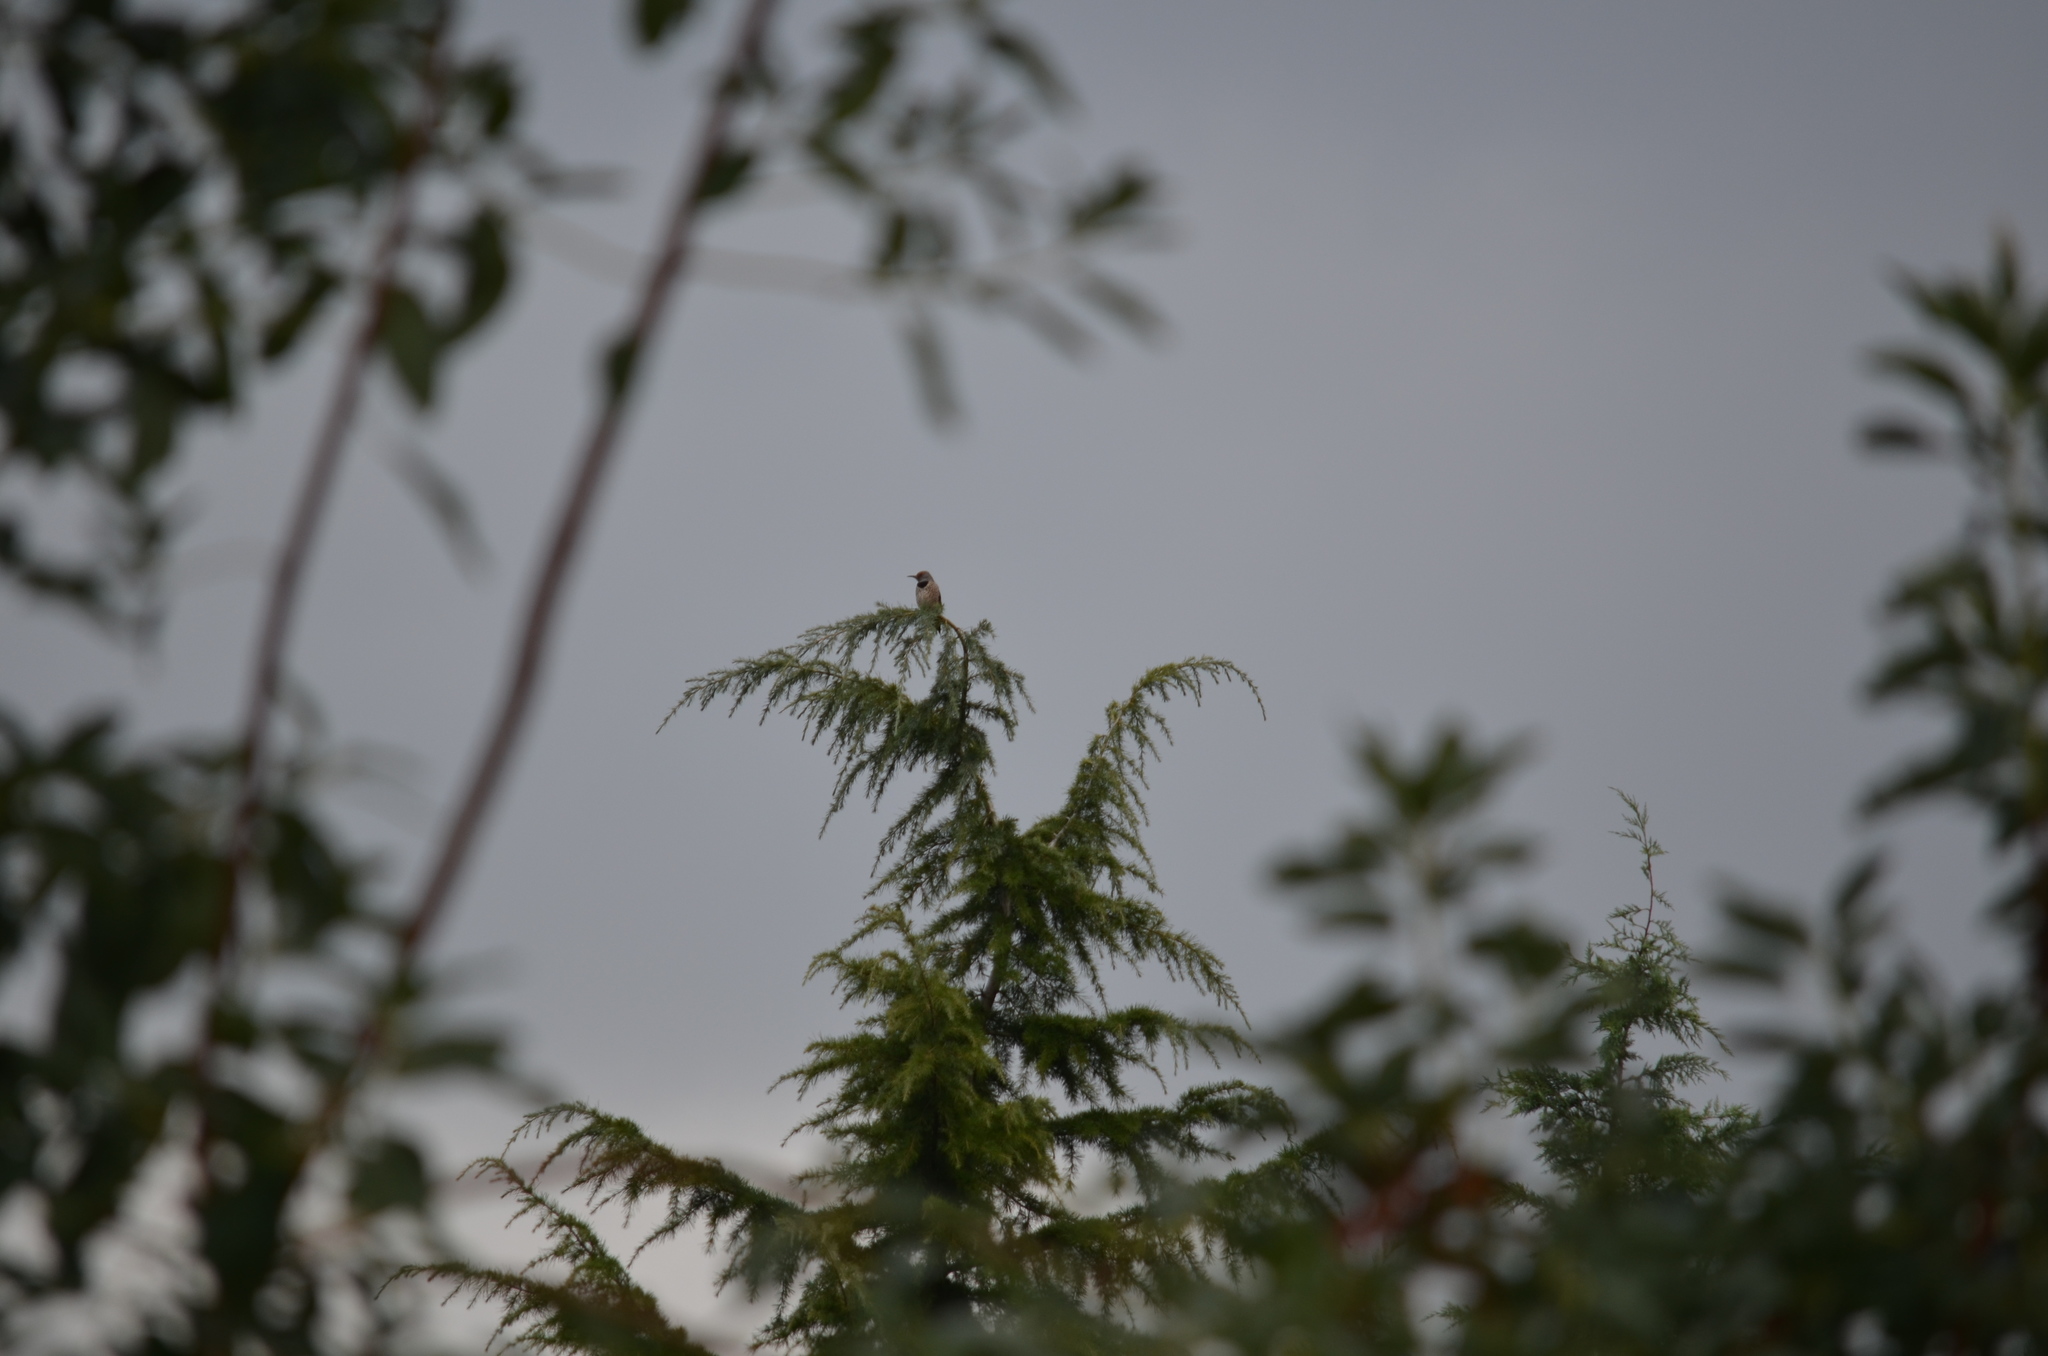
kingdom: Animalia
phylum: Chordata
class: Aves
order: Piciformes
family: Picidae
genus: Colaptes
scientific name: Colaptes auratus
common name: Northern flicker
